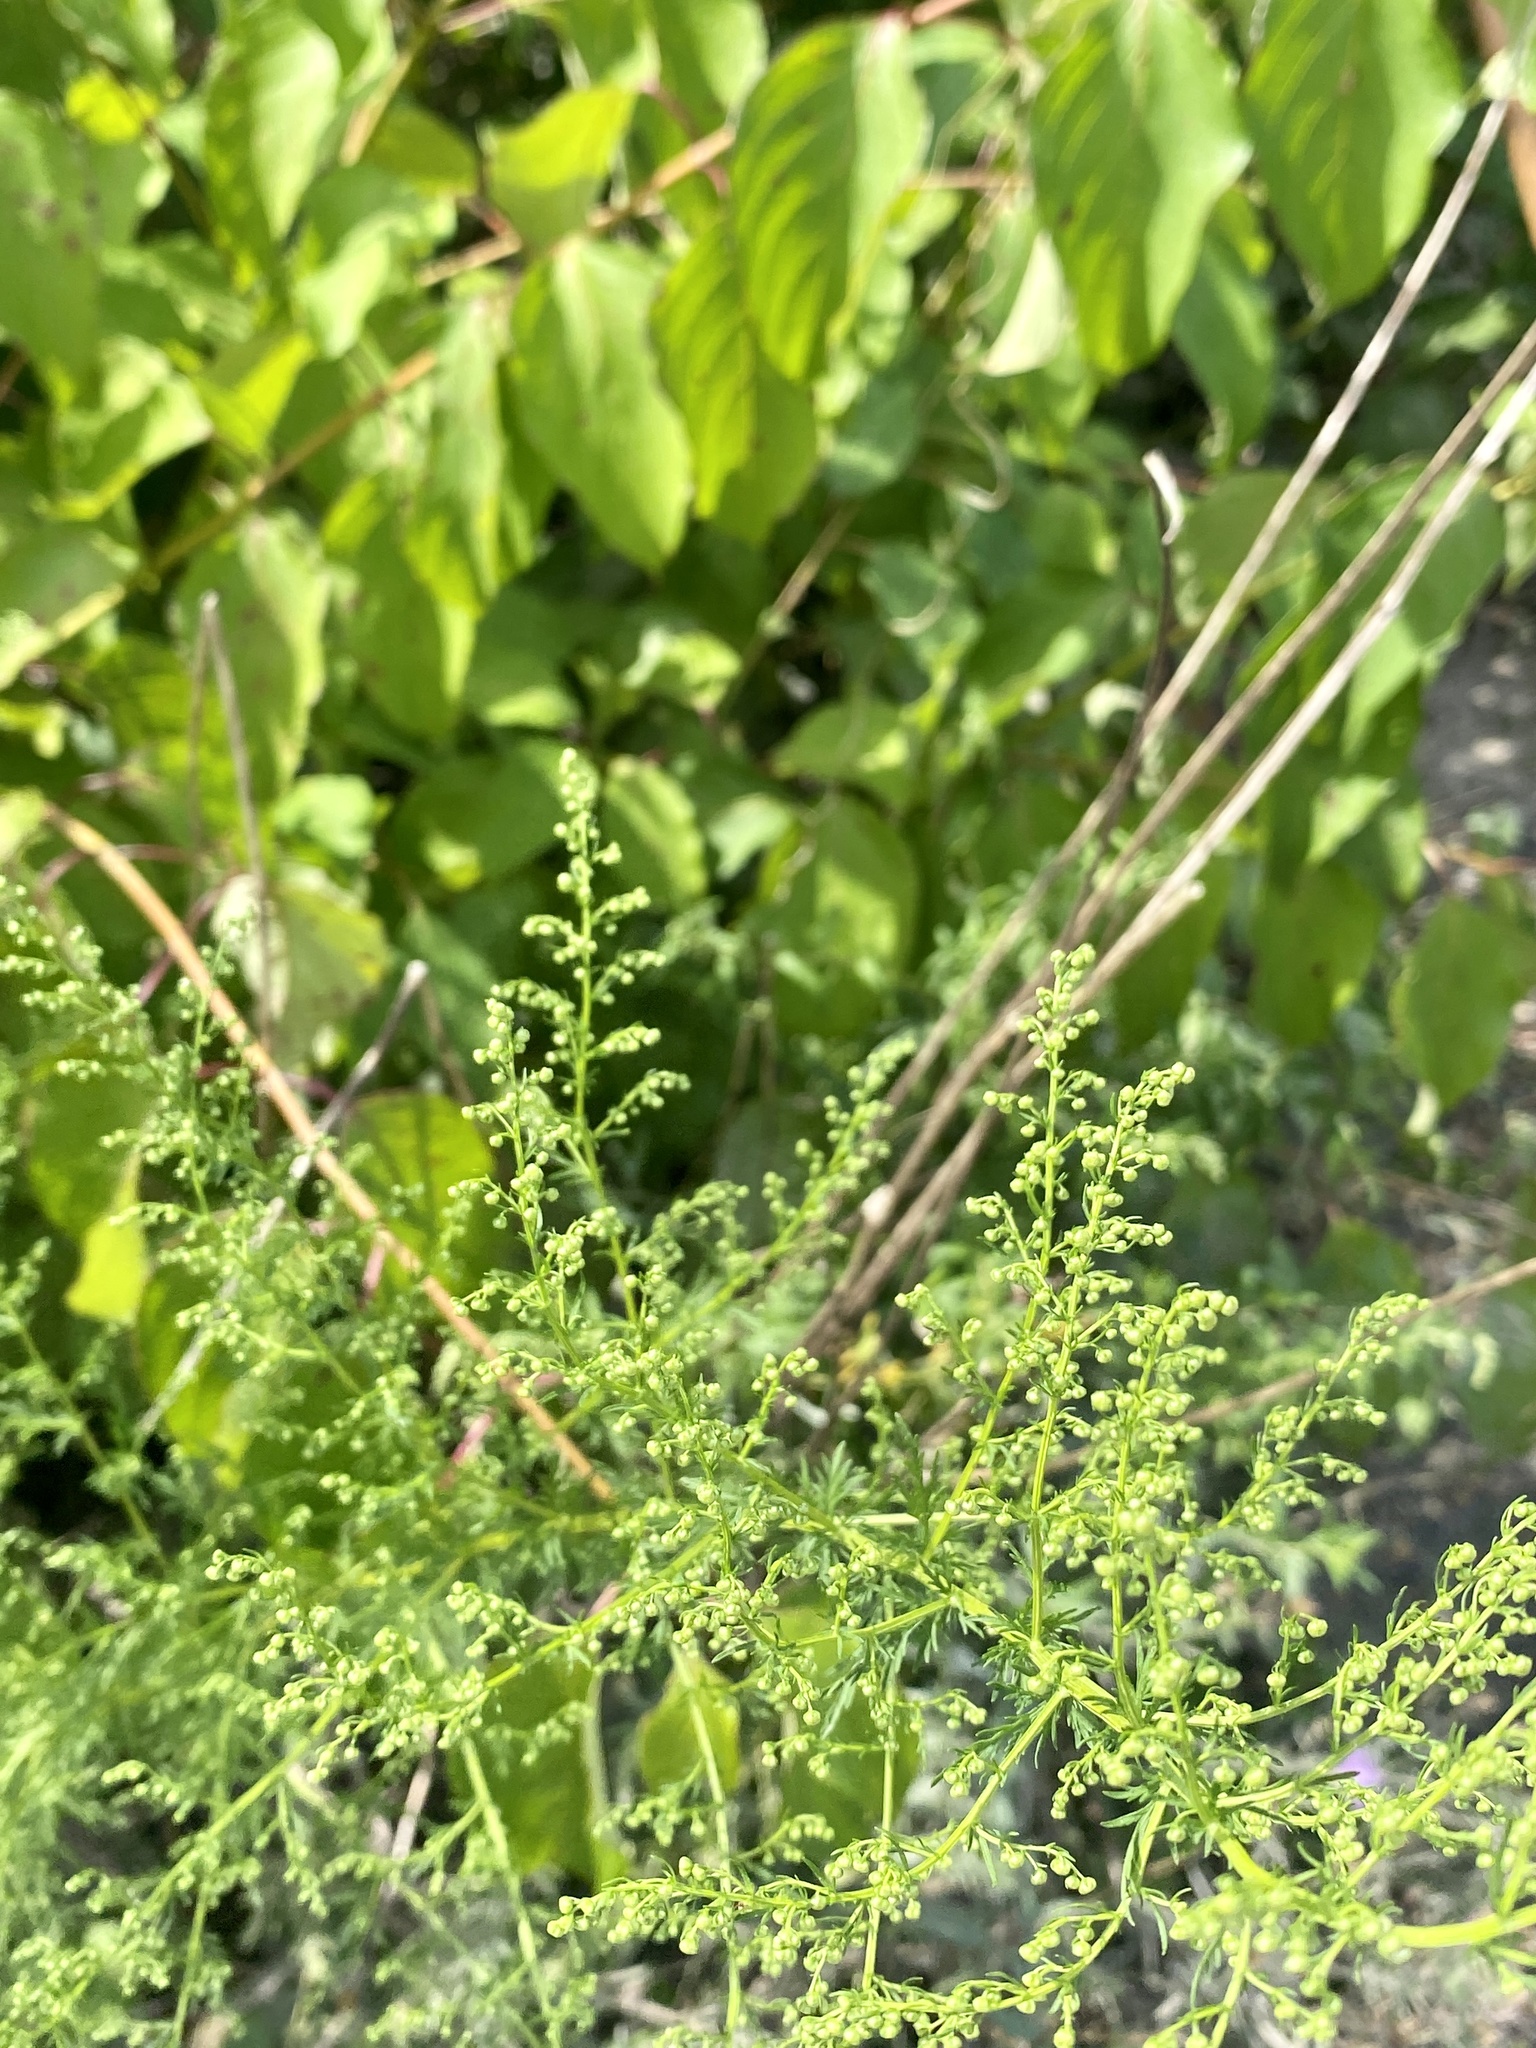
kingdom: Plantae
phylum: Tracheophyta
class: Magnoliopsida
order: Asterales
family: Asteraceae
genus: Artemisia
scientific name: Artemisia annua
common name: Sweet sagewort
